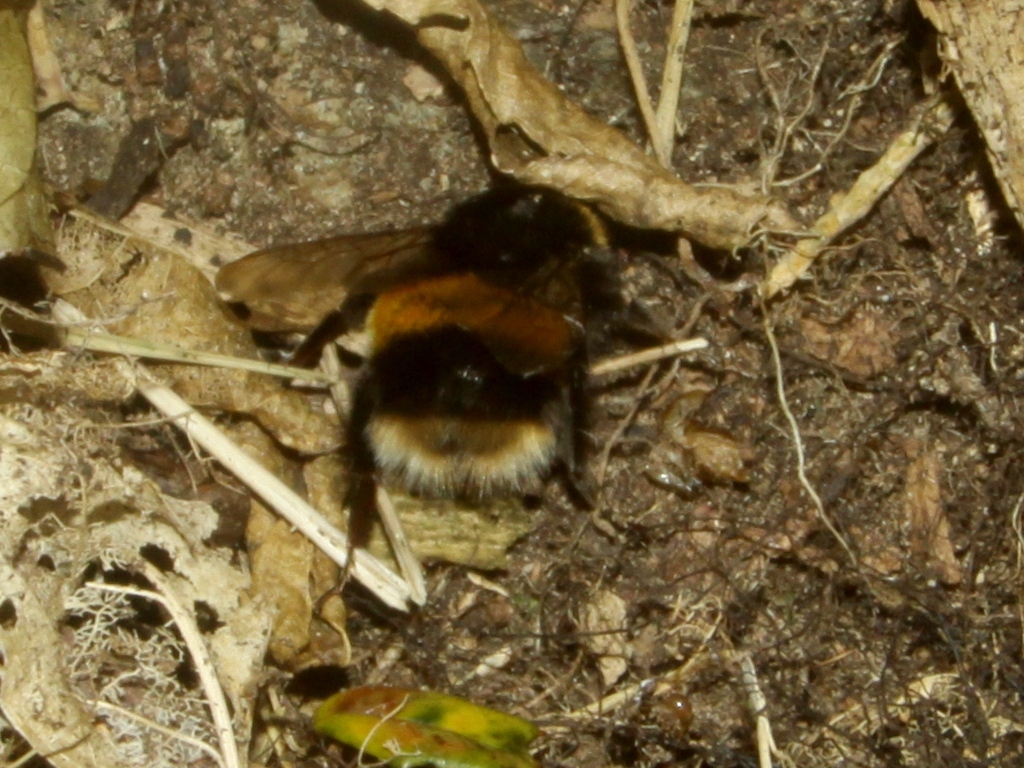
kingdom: Animalia
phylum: Arthropoda
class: Insecta
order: Hymenoptera
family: Apidae
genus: Bombus
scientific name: Bombus terrestris
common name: Buff-tailed bumblebee
